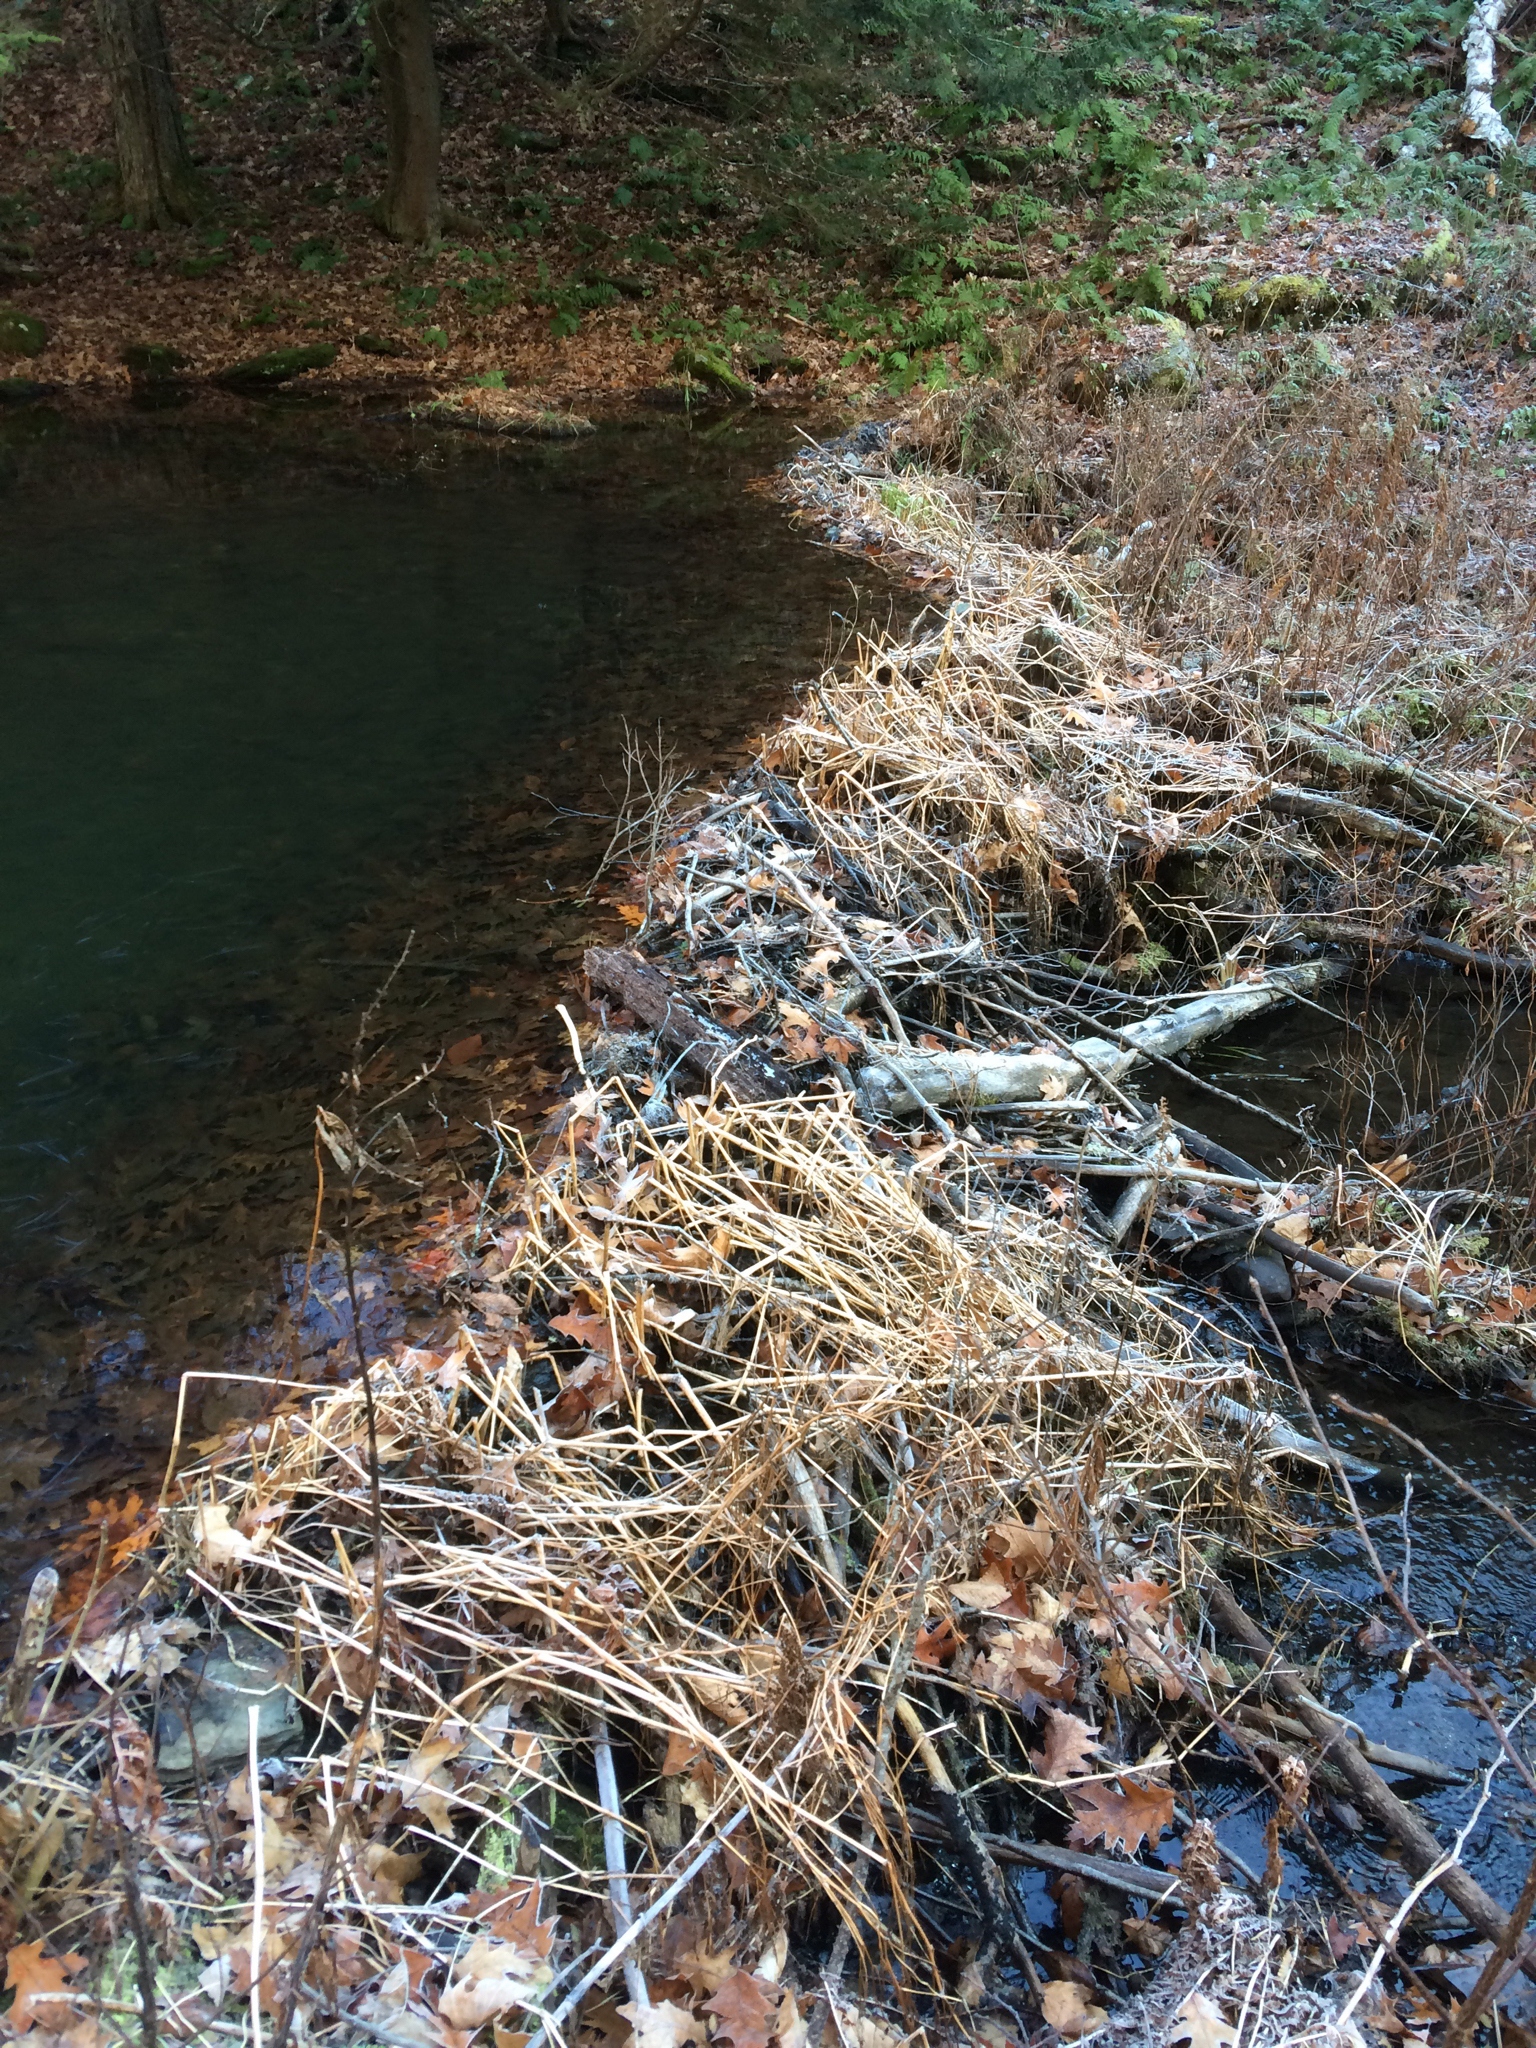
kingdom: Animalia
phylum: Chordata
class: Mammalia
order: Rodentia
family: Castoridae
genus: Castor
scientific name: Castor canadensis
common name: American beaver
